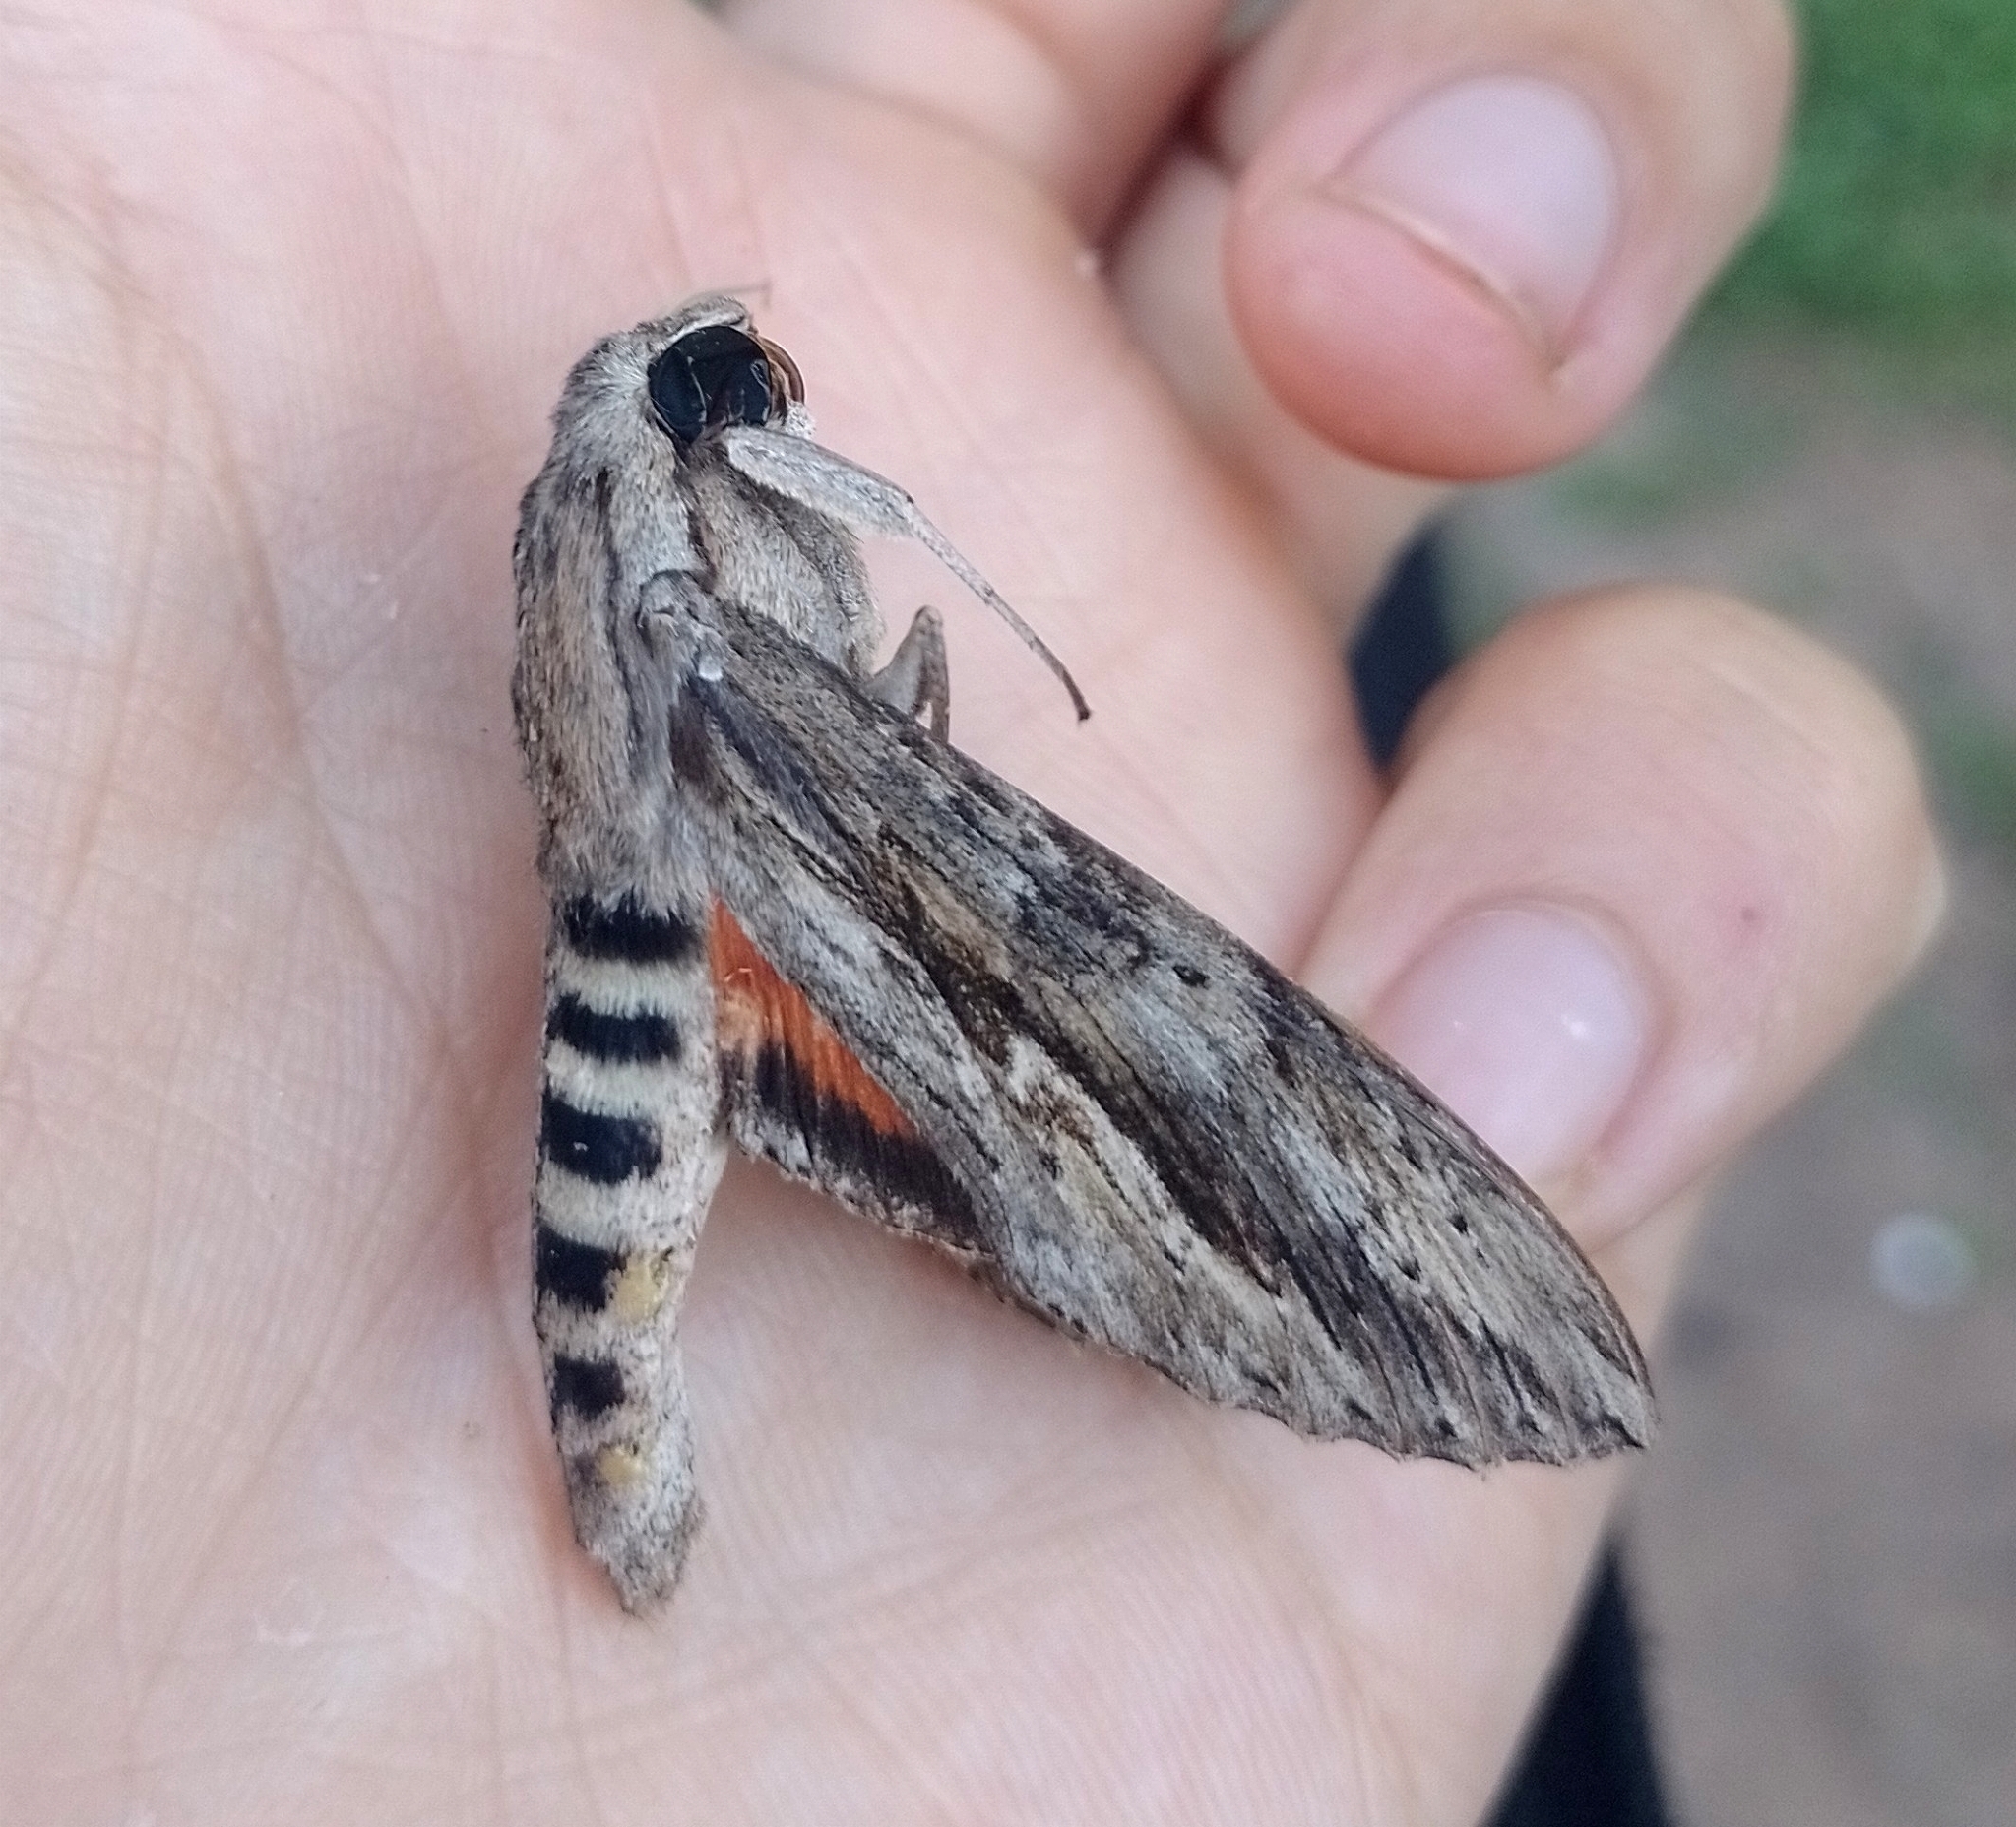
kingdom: Animalia
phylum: Arthropoda
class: Insecta
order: Lepidoptera
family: Sphingidae
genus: Erinnyis
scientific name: Erinnyis ello
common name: Ello sphinx
